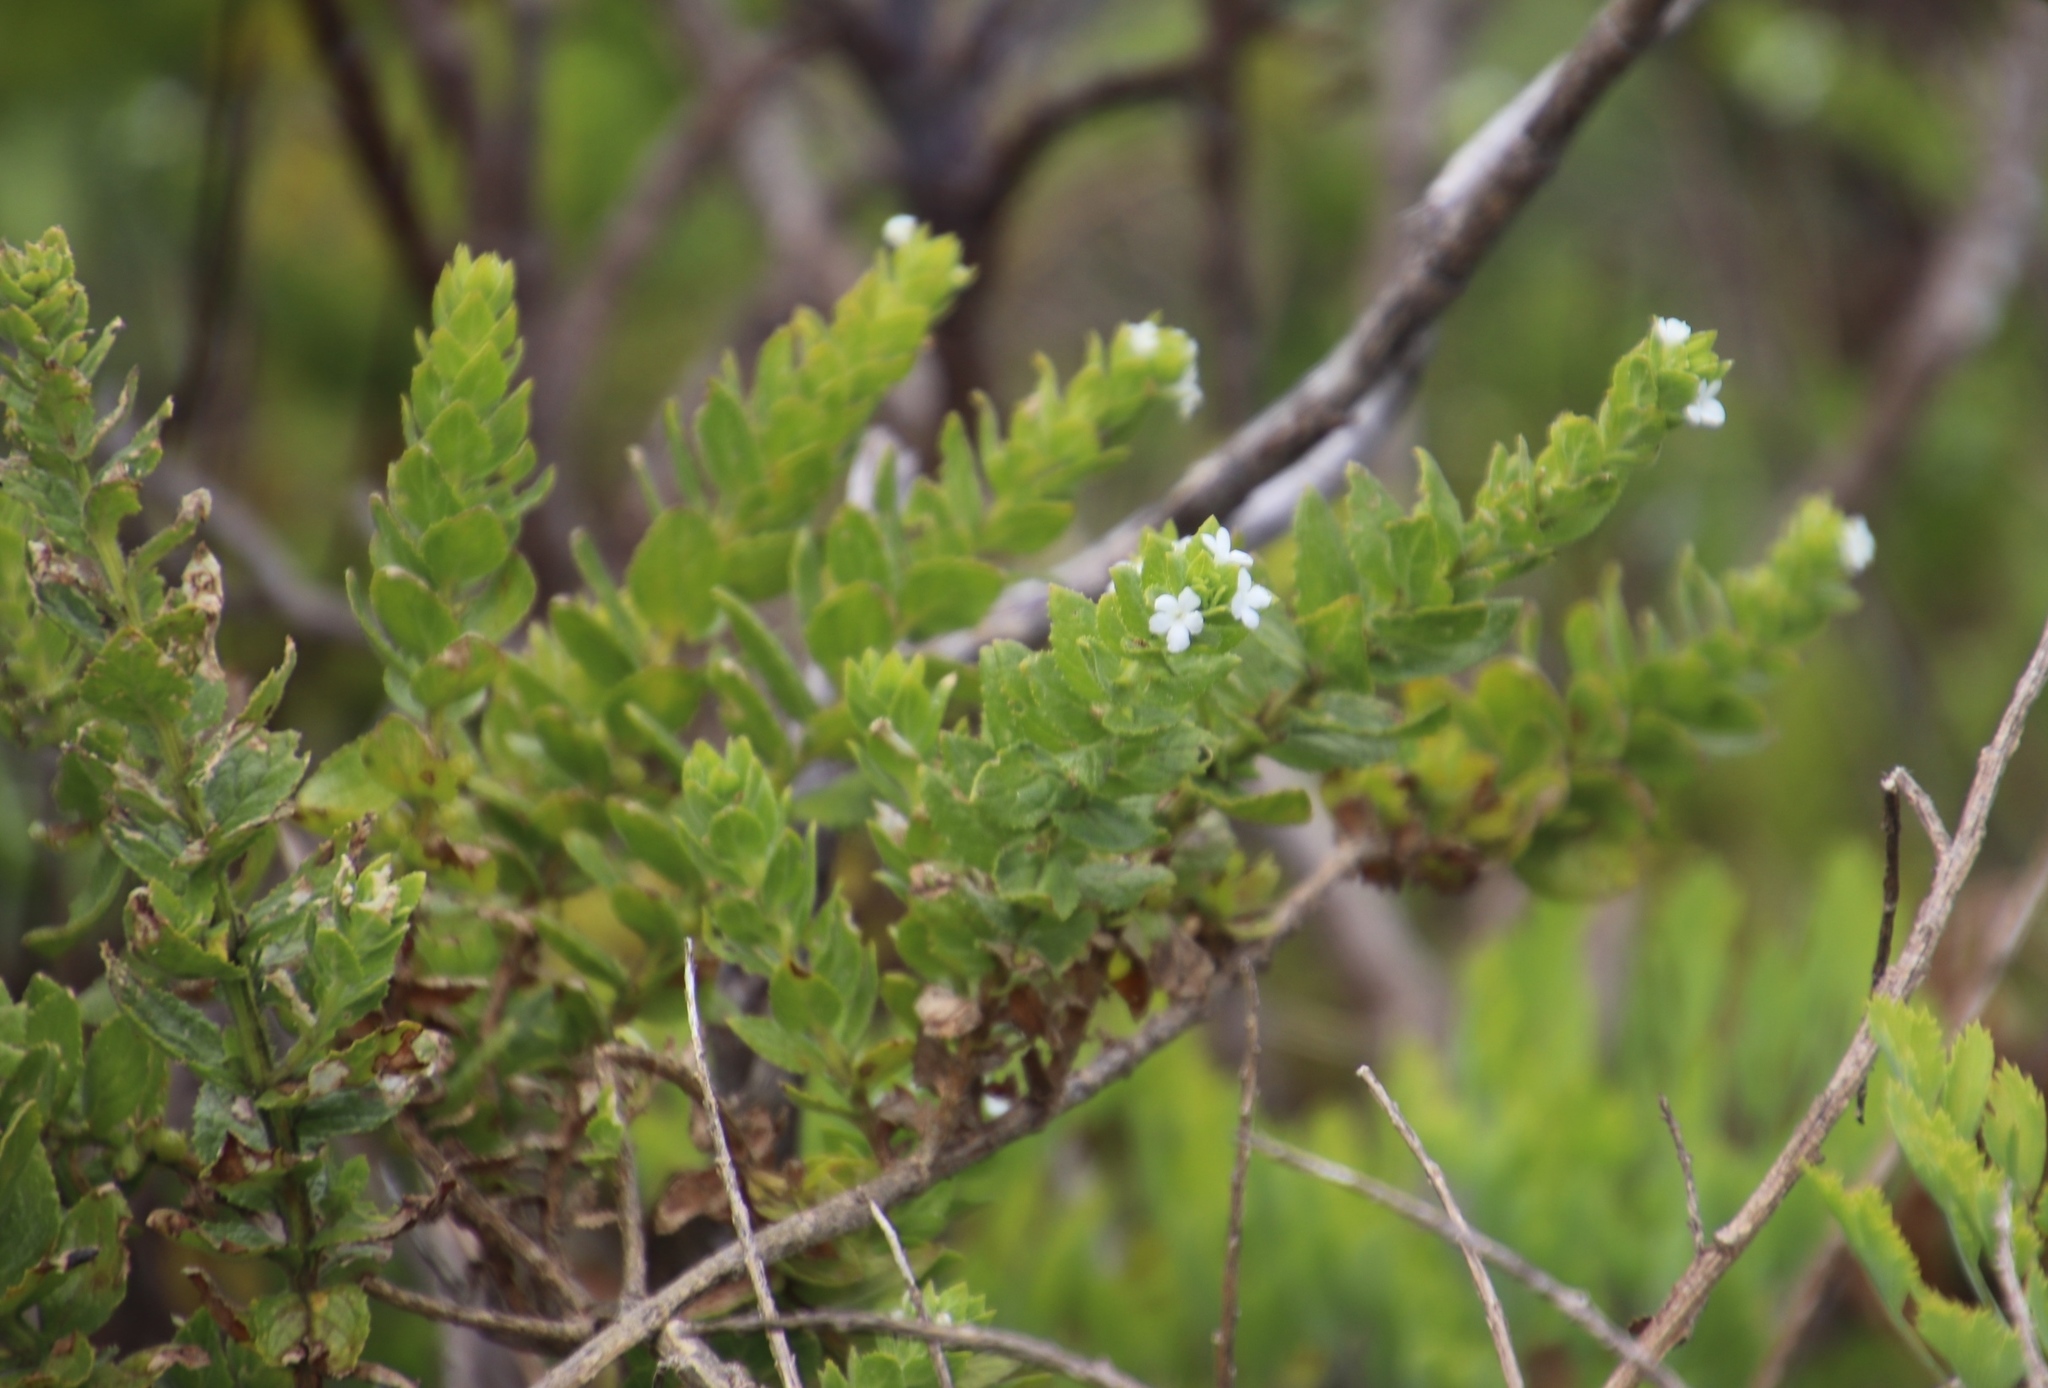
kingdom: Plantae
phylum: Tracheophyta
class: Magnoliopsida
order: Lamiales
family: Scrophulariaceae
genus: Oftia
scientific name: Oftia africana
